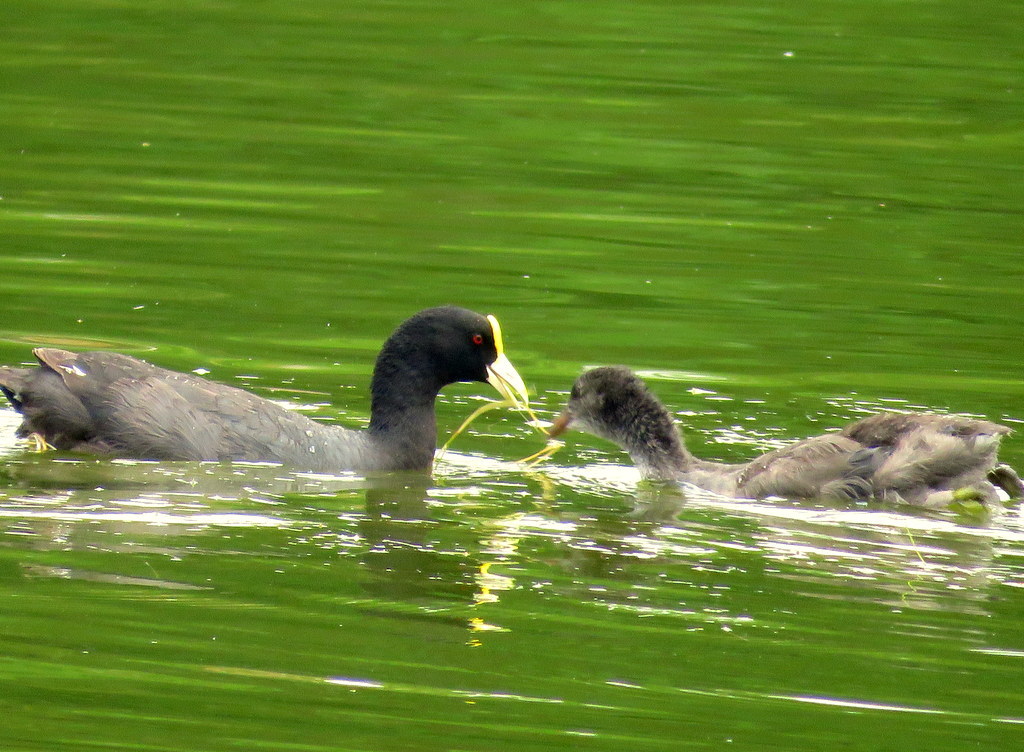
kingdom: Animalia
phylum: Chordata
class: Aves
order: Gruiformes
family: Rallidae
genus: Fulica
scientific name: Fulica leucoptera
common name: White-winged coot
